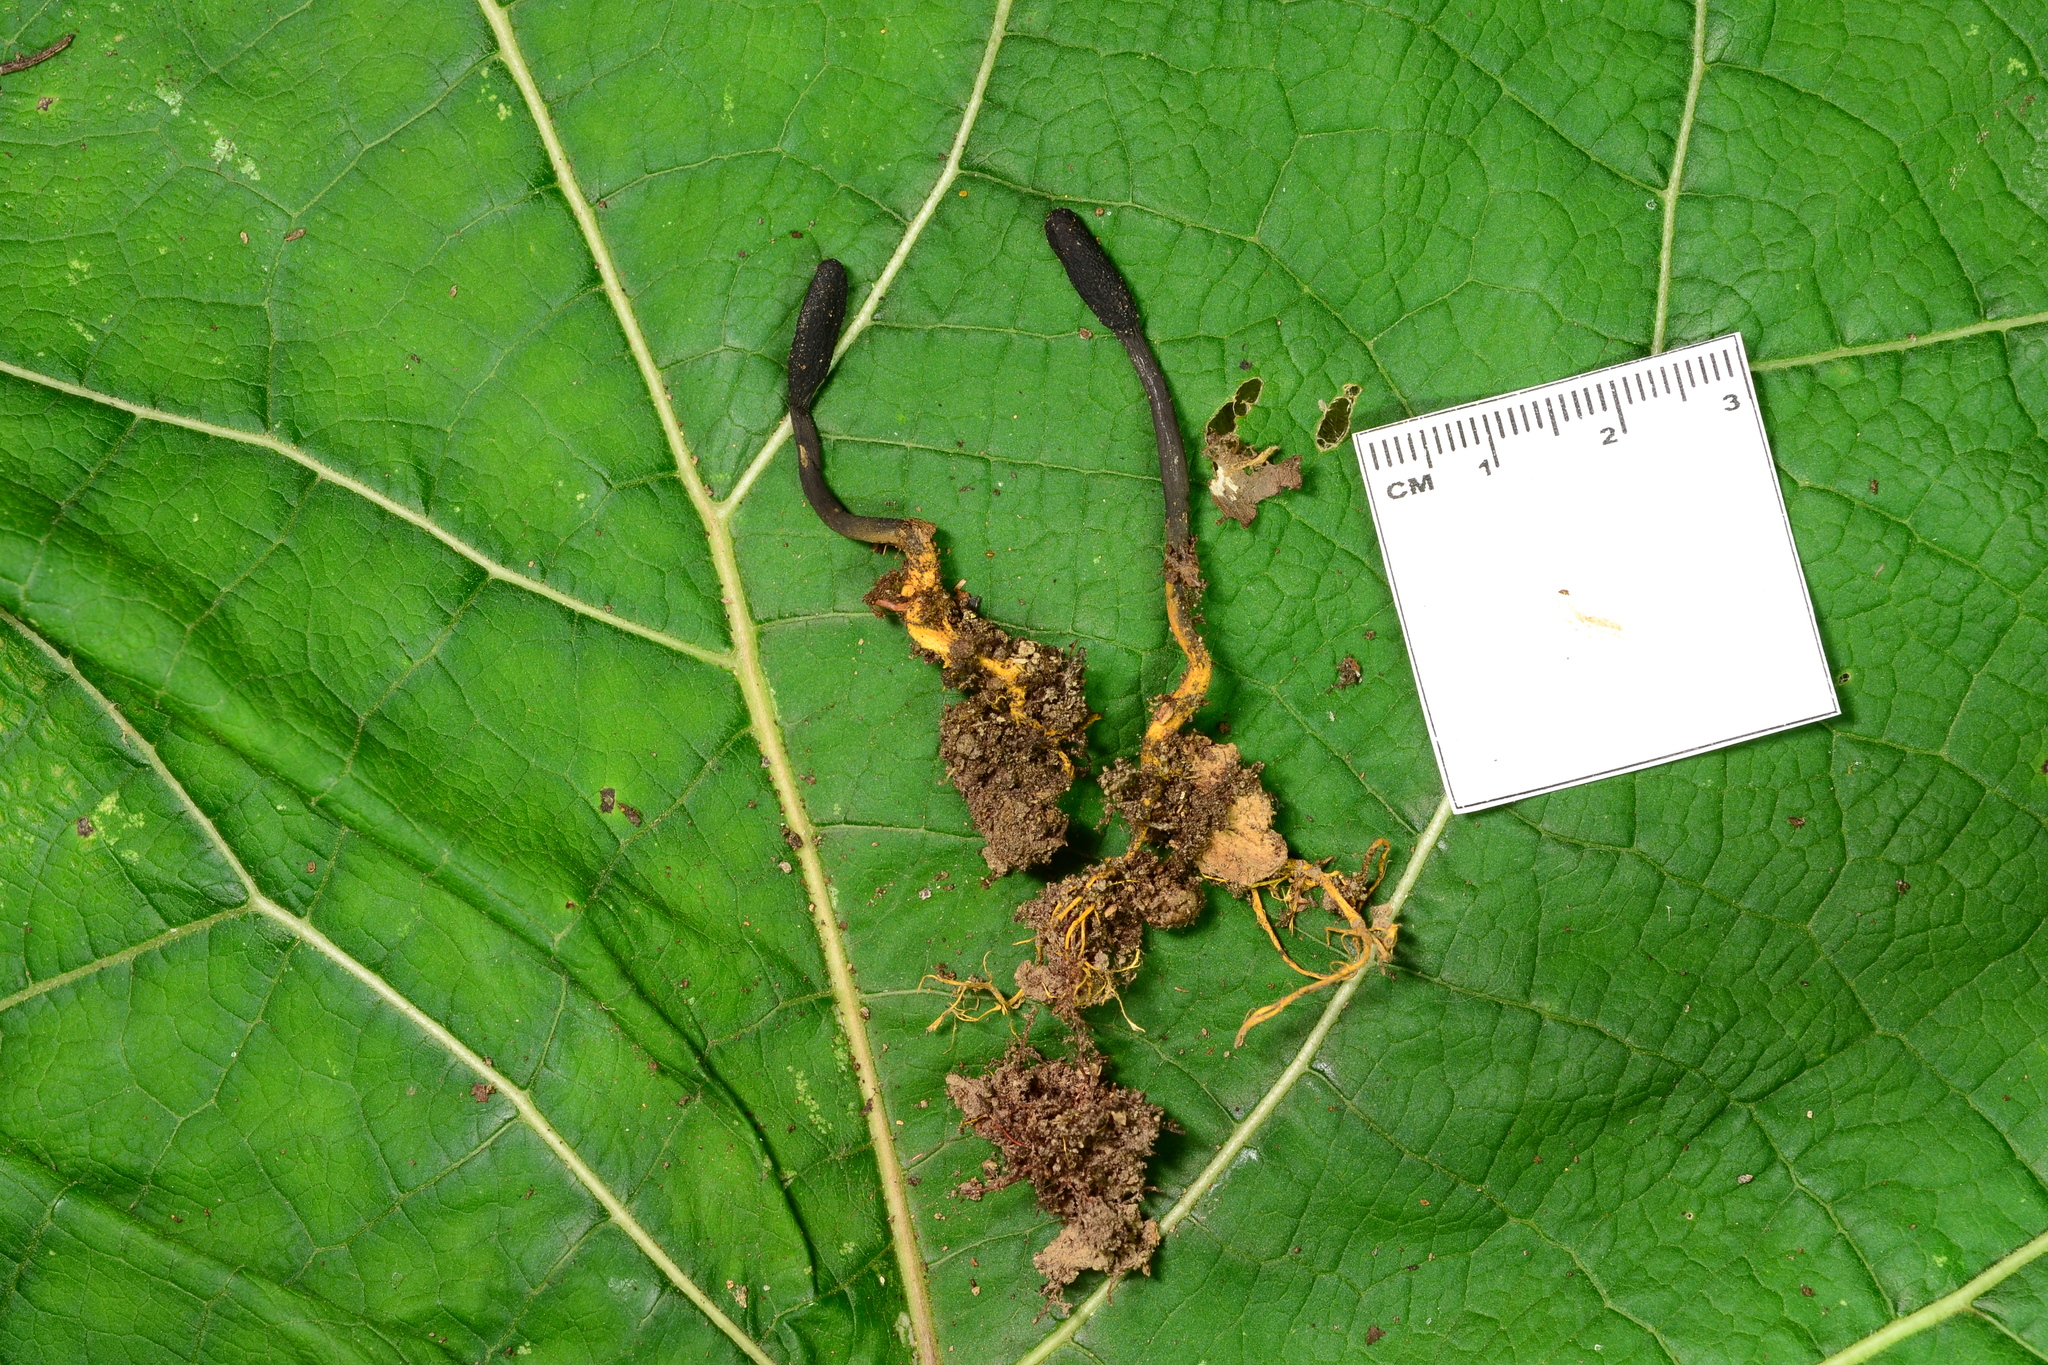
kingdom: Fungi
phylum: Ascomycota
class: Sordariomycetes
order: Hypocreales
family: Ophiocordycipitaceae
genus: Tolypocladium
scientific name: Tolypocladium ophioglossoides
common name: Snaketongue truffleclub
